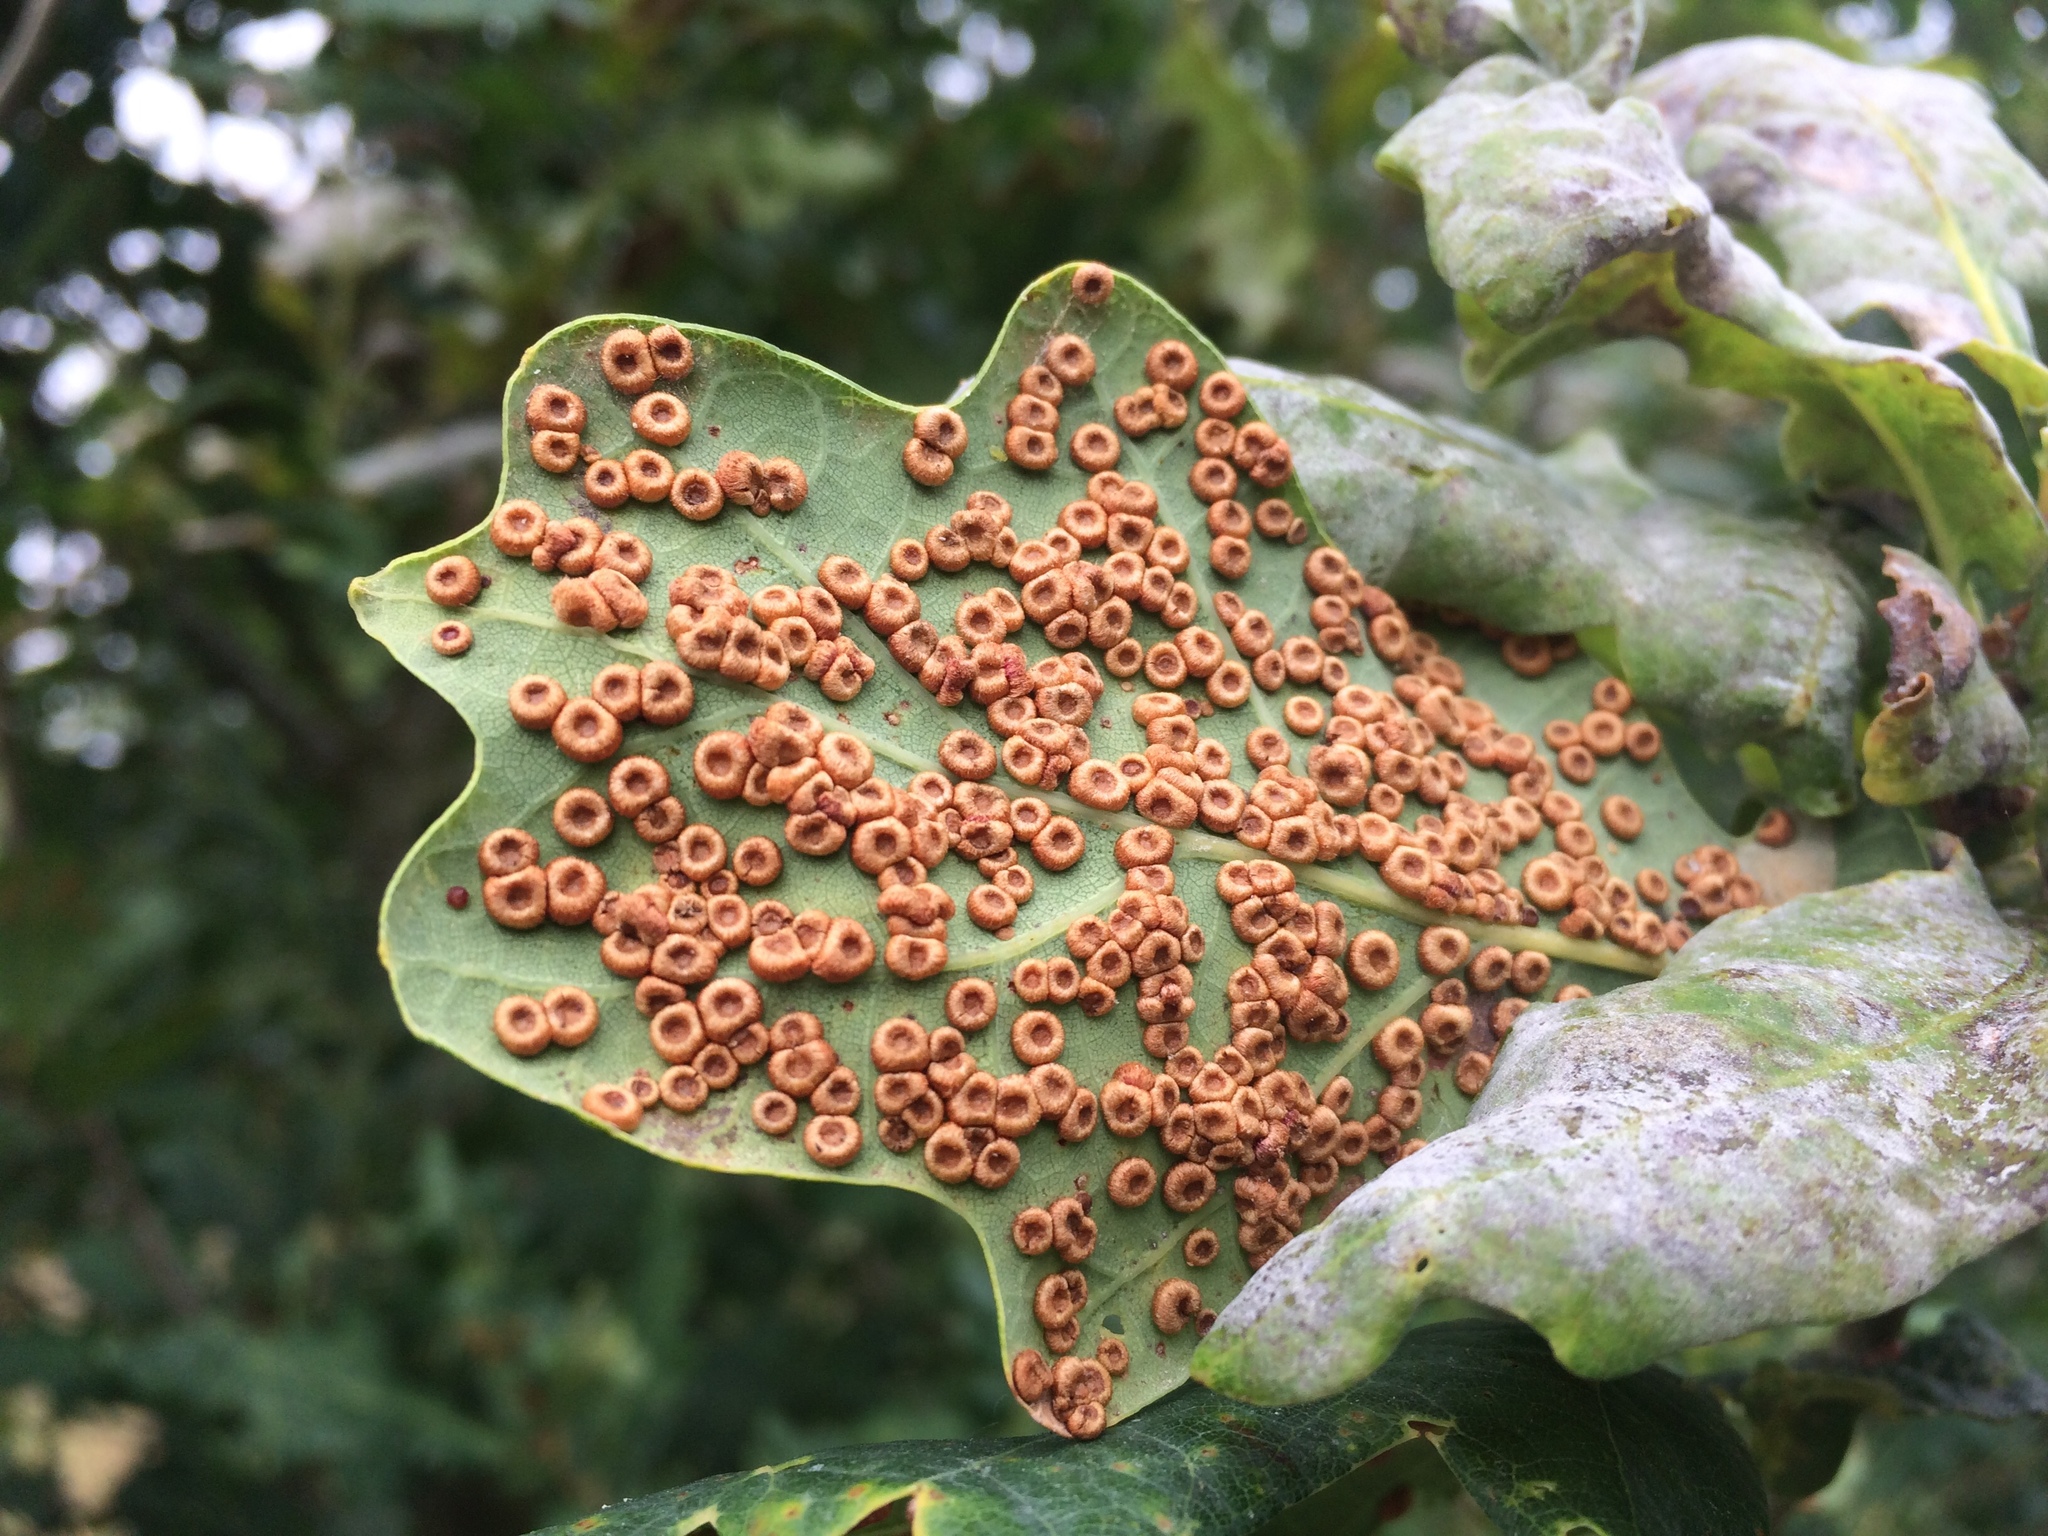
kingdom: Animalia
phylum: Arthropoda
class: Insecta
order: Hymenoptera
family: Cynipidae
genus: Neuroterus
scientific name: Neuroterus numismalis
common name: Silk-button spangle gall
